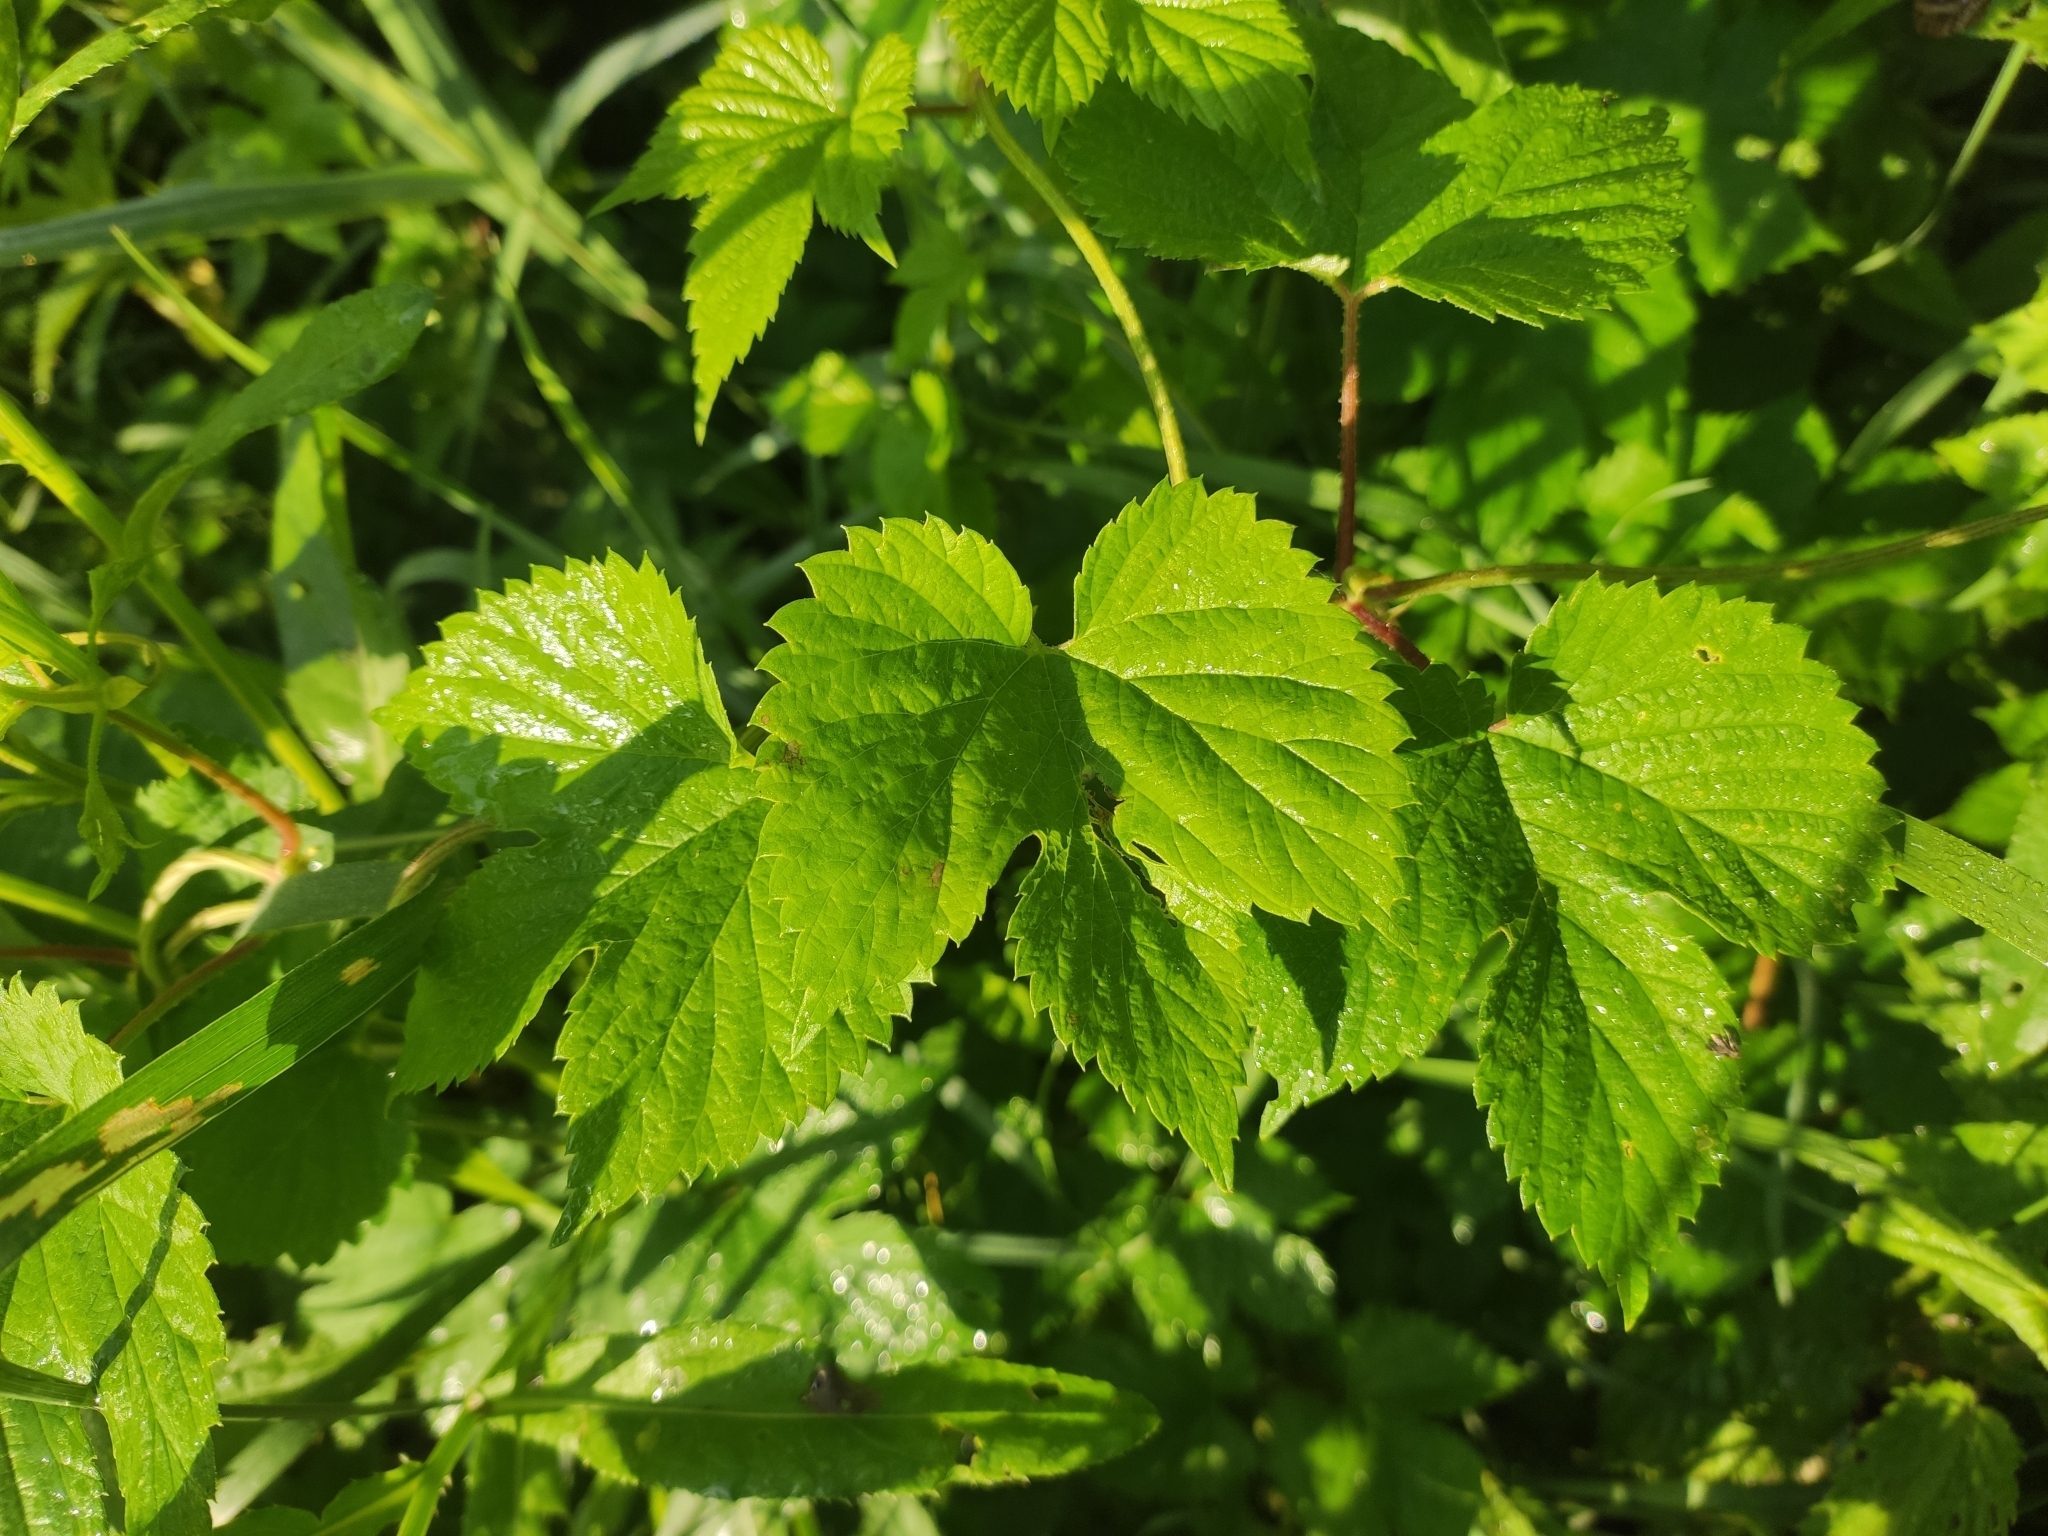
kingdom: Plantae
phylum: Tracheophyta
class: Magnoliopsida
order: Rosales
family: Cannabaceae
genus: Humulus
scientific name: Humulus lupulus
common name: Hop
